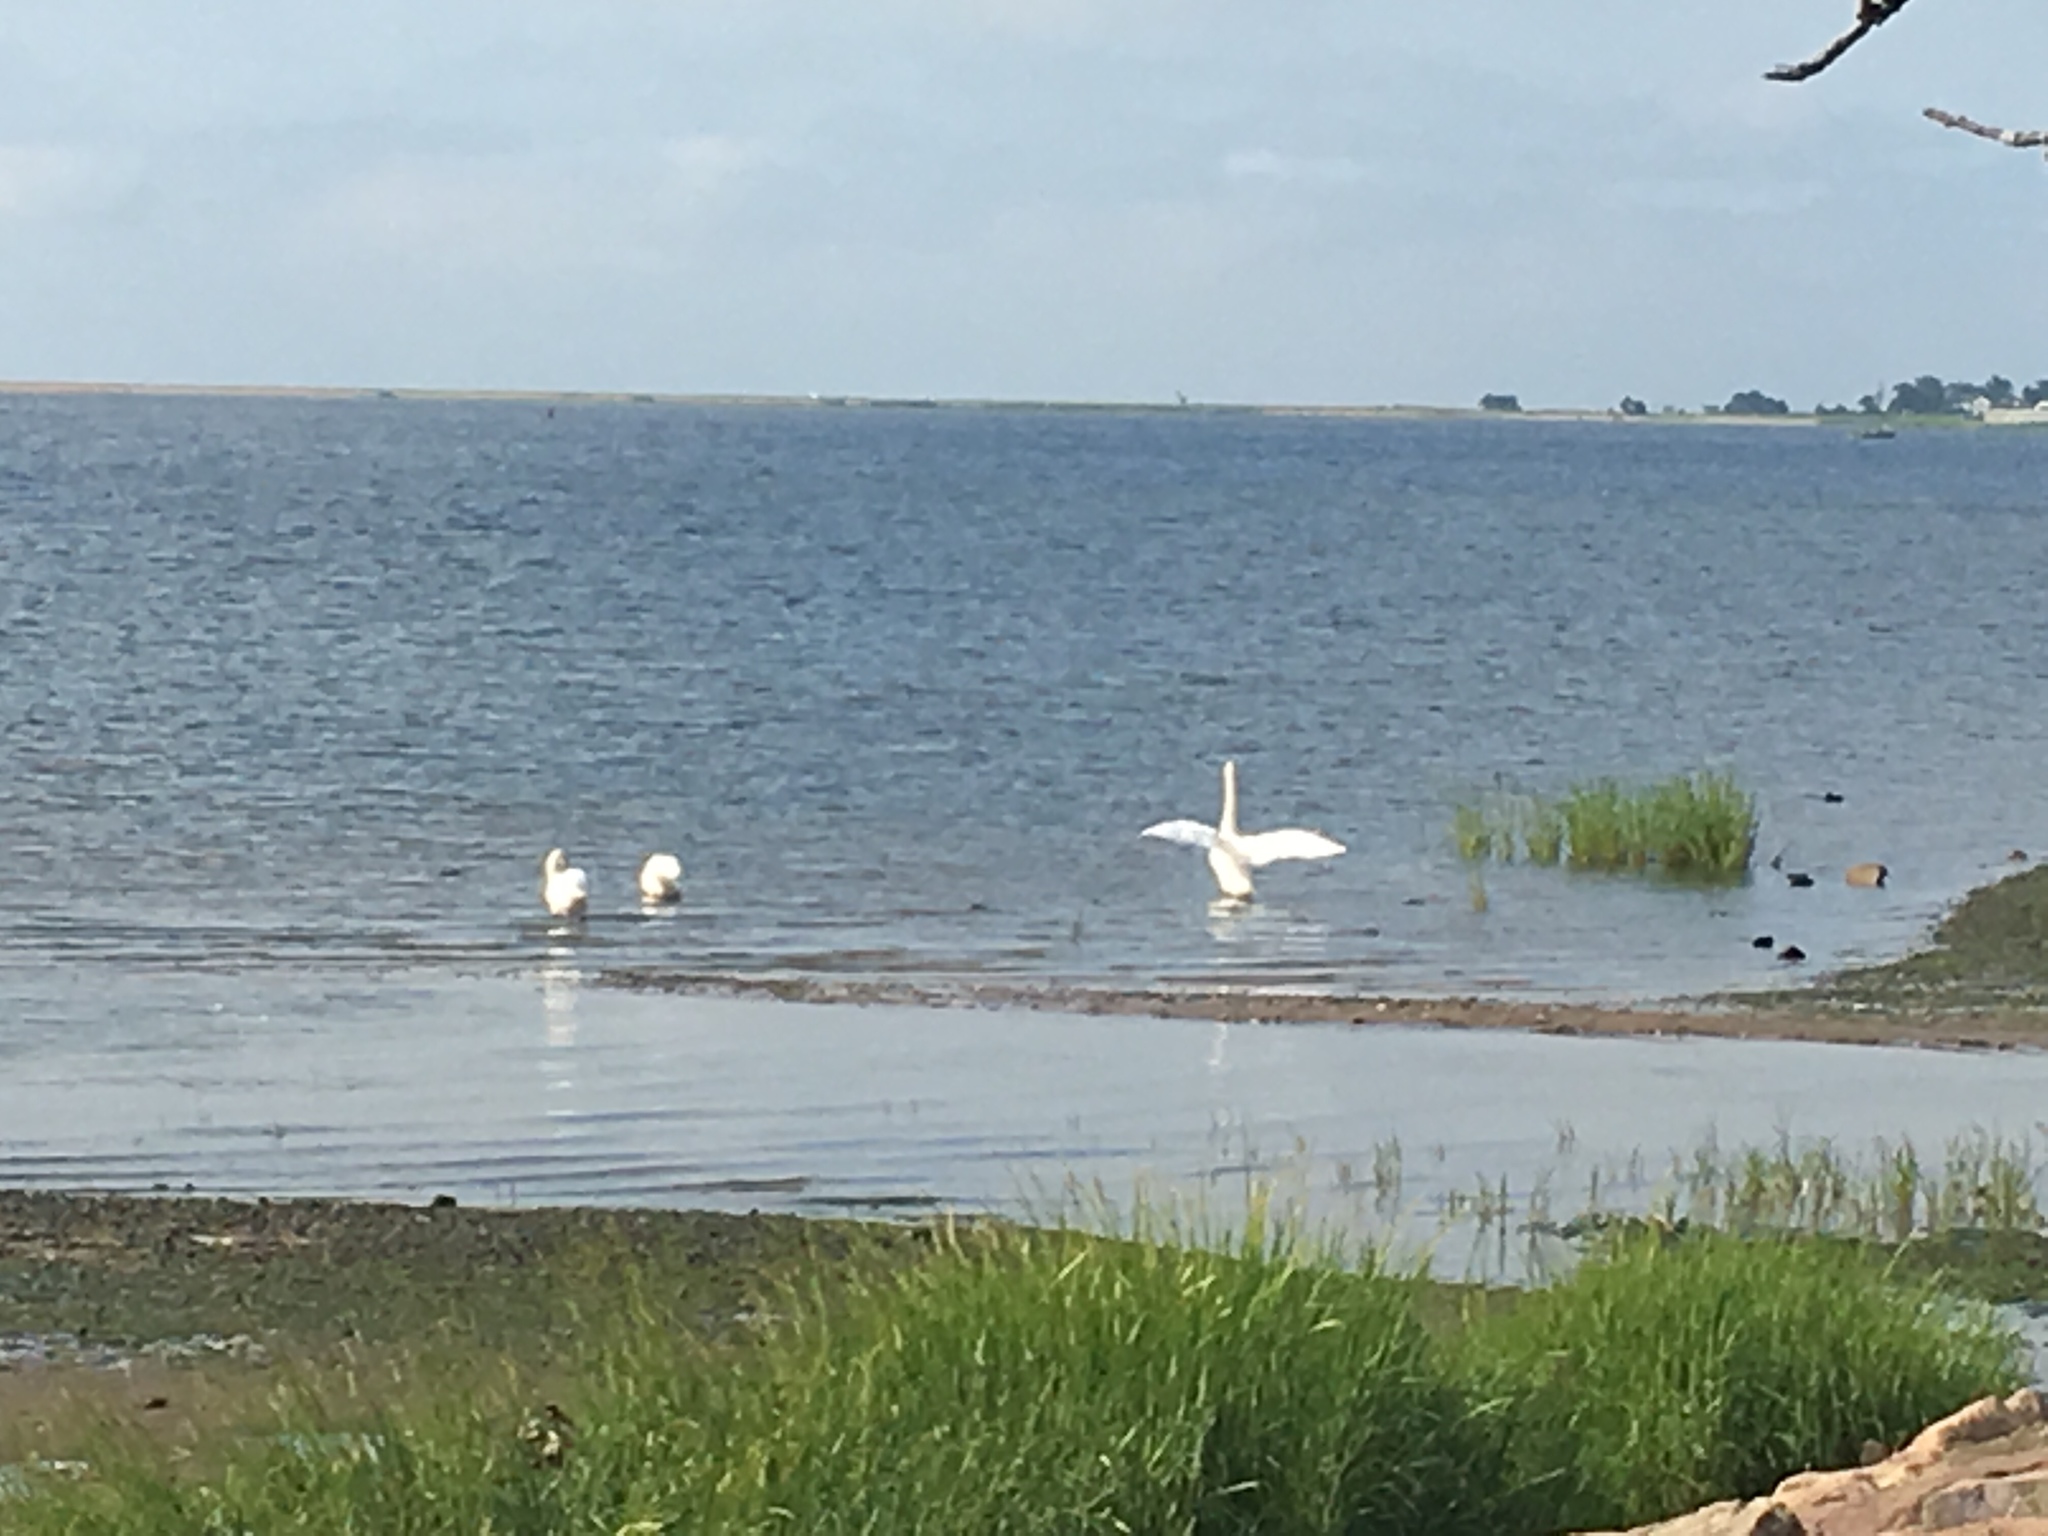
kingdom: Animalia
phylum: Chordata
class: Aves
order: Anseriformes
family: Anatidae
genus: Cygnus
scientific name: Cygnus olor
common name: Mute swan
